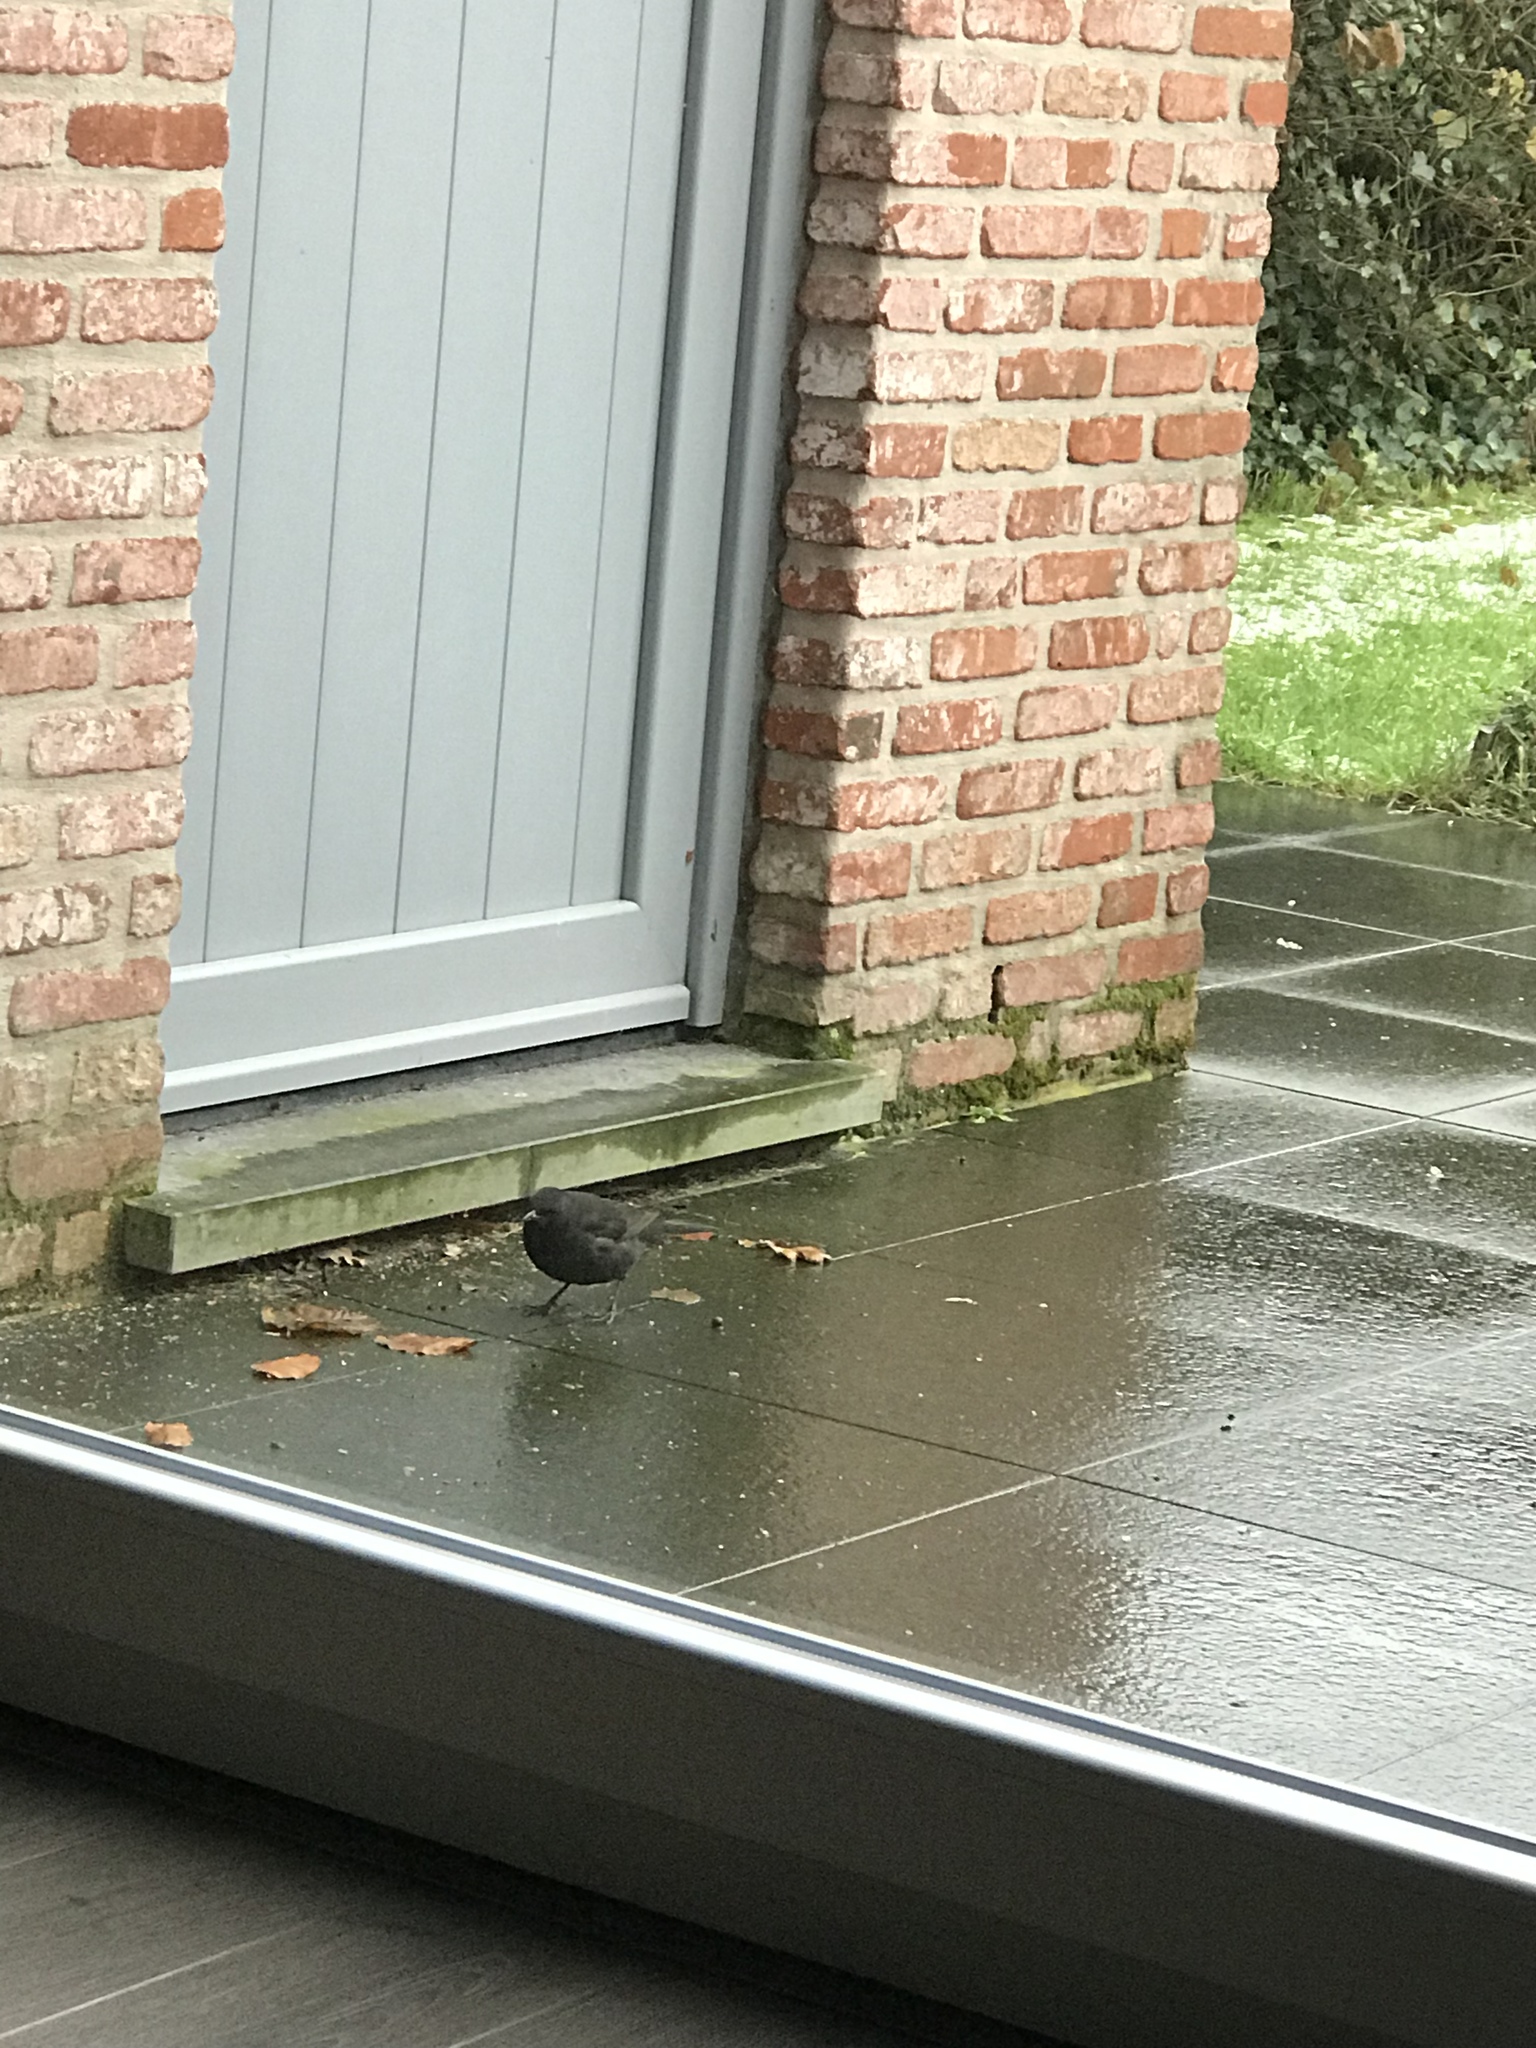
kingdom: Animalia
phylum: Chordata
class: Aves
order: Passeriformes
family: Turdidae
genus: Turdus
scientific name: Turdus merula
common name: Common blackbird
